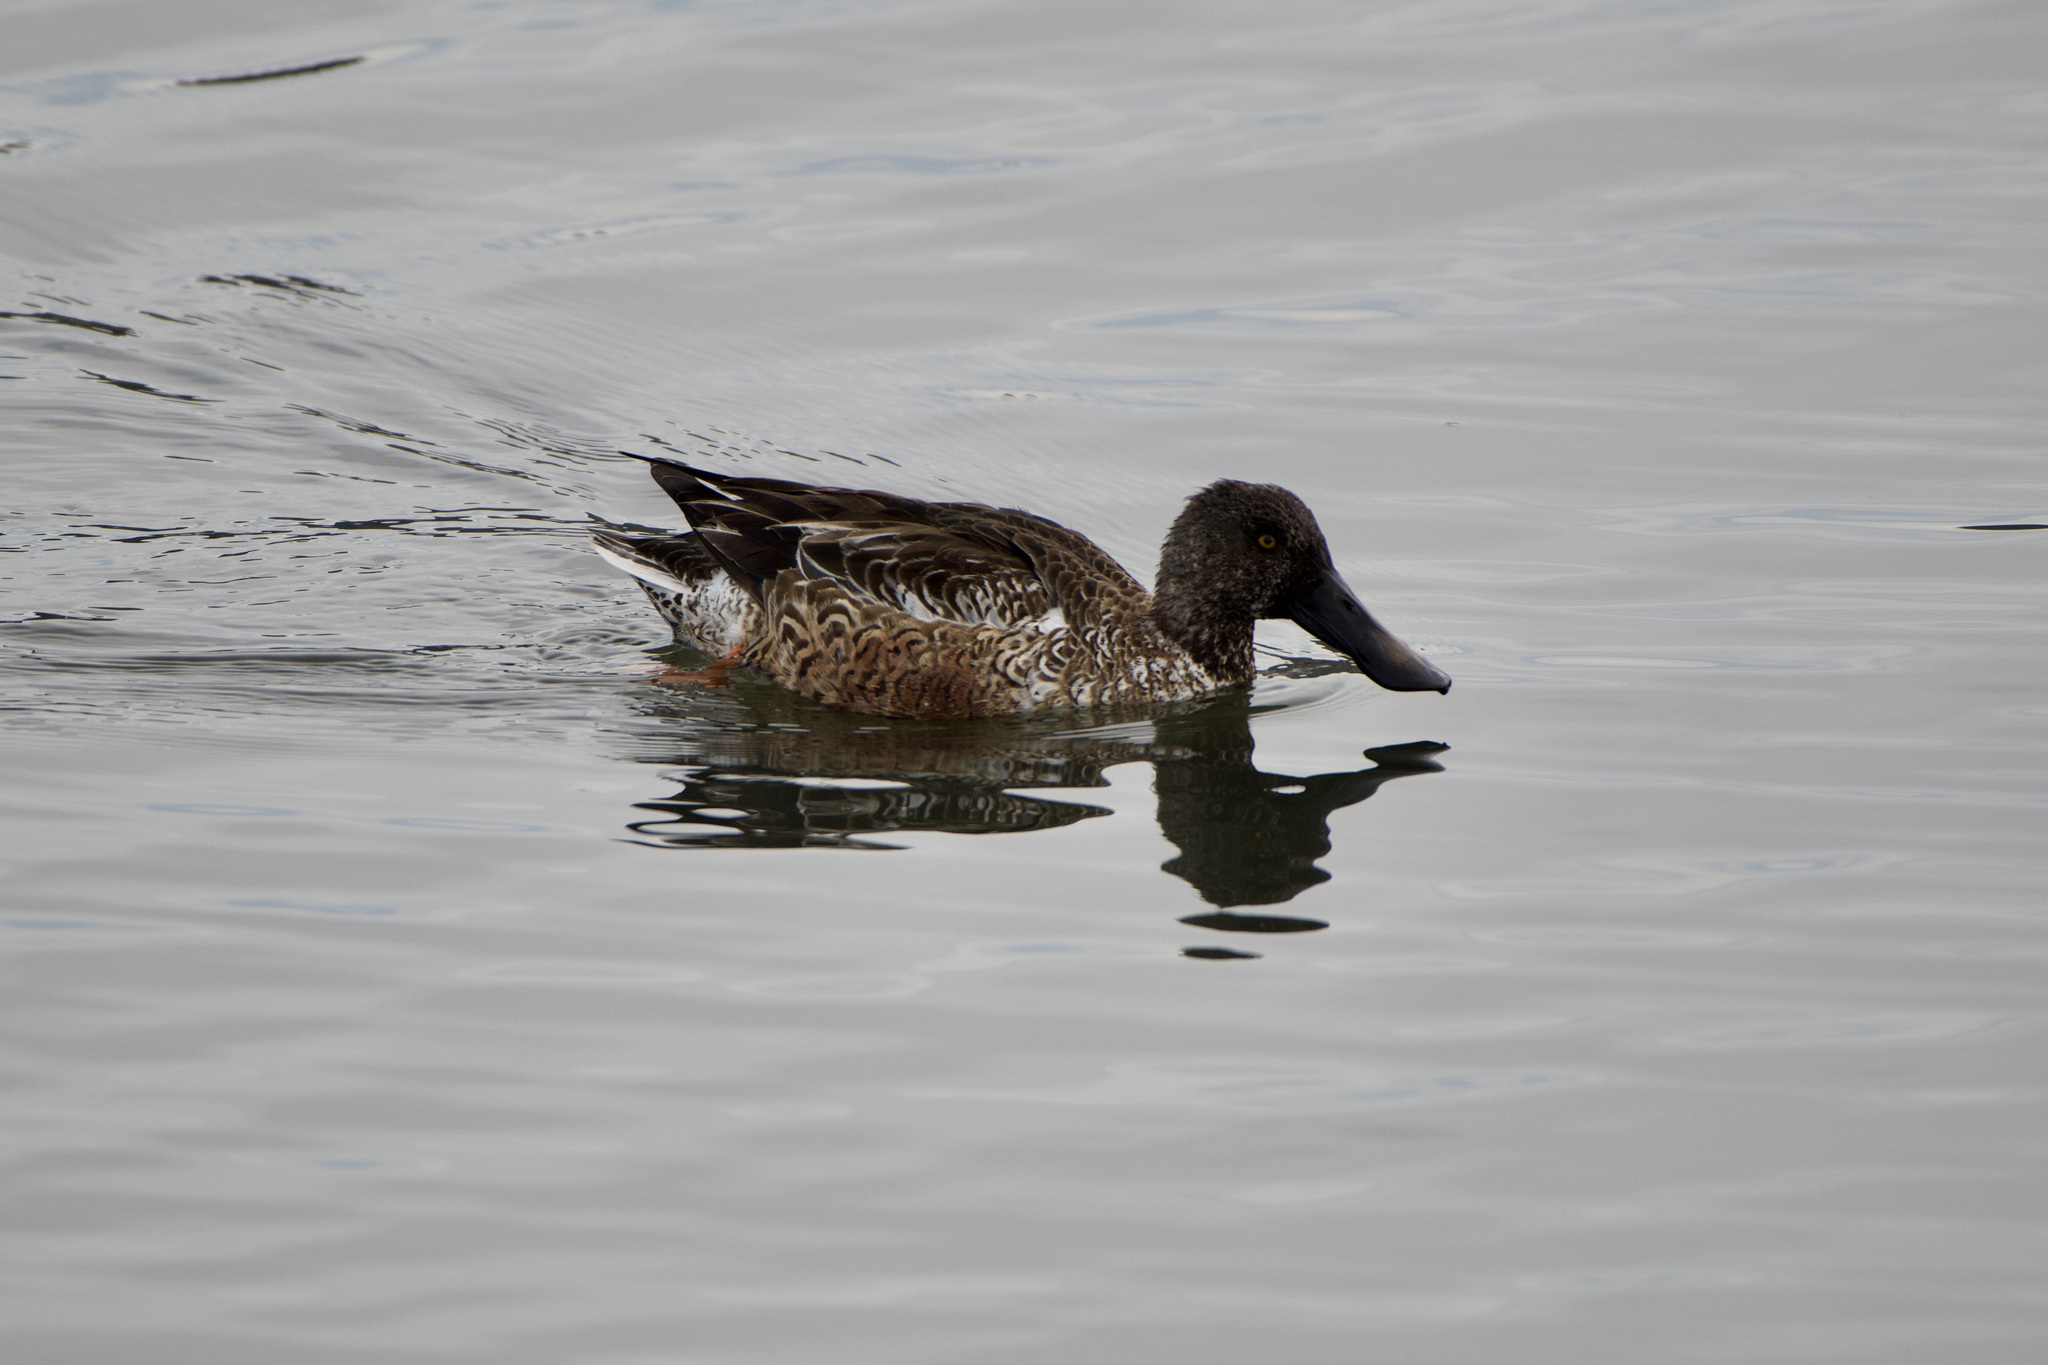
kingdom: Animalia
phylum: Chordata
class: Aves
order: Anseriformes
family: Anatidae
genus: Spatula
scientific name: Spatula clypeata
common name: Northern shoveler
